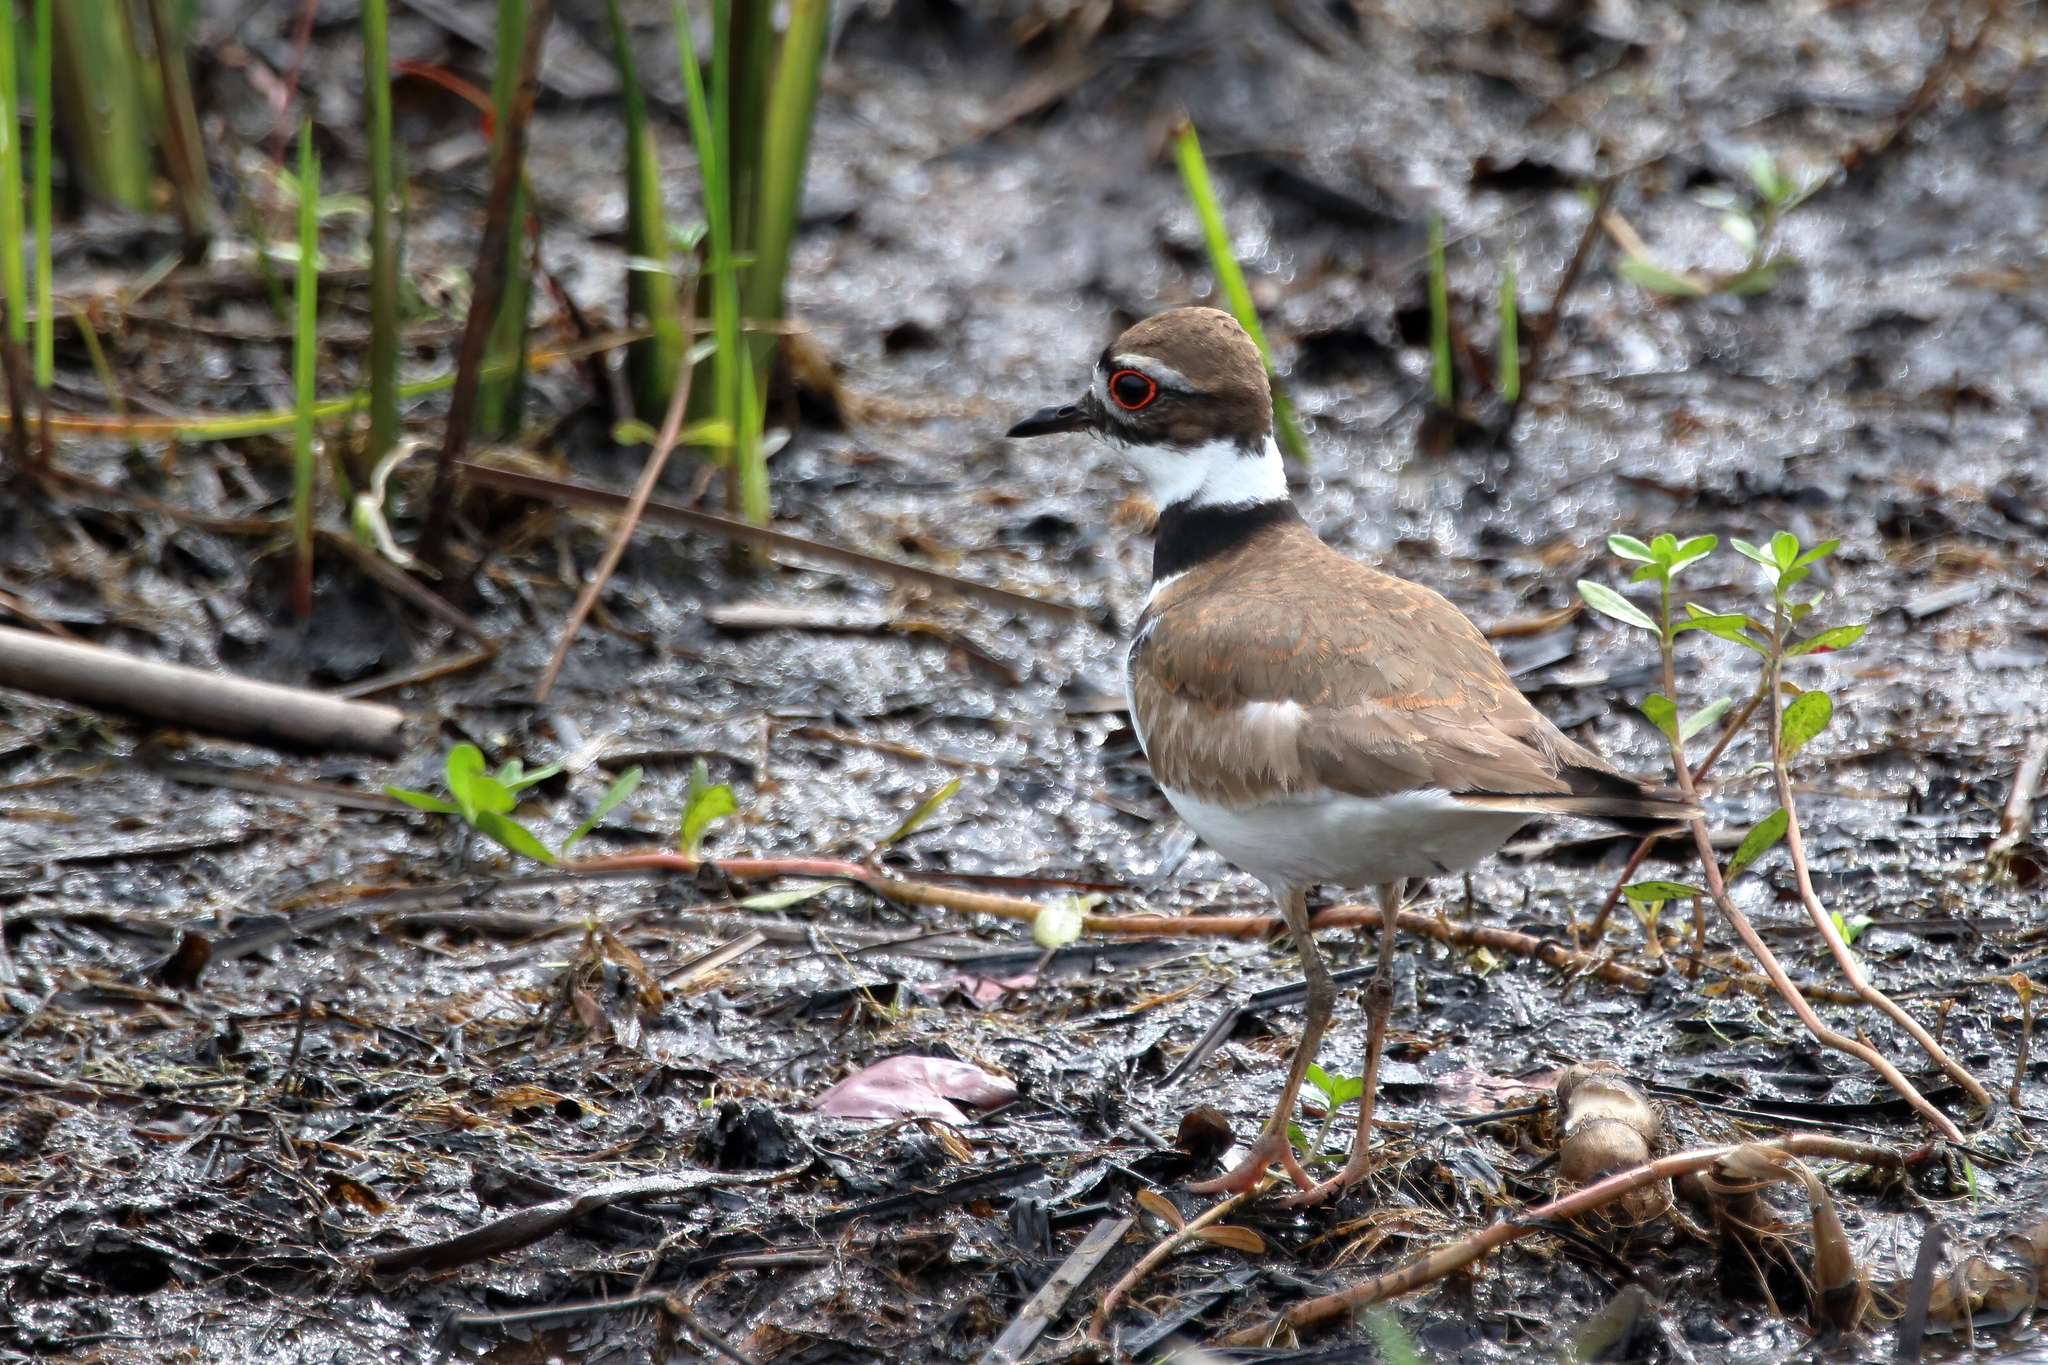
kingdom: Animalia
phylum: Chordata
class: Aves
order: Charadriiformes
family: Charadriidae
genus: Charadrius
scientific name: Charadrius vociferus
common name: Killdeer
